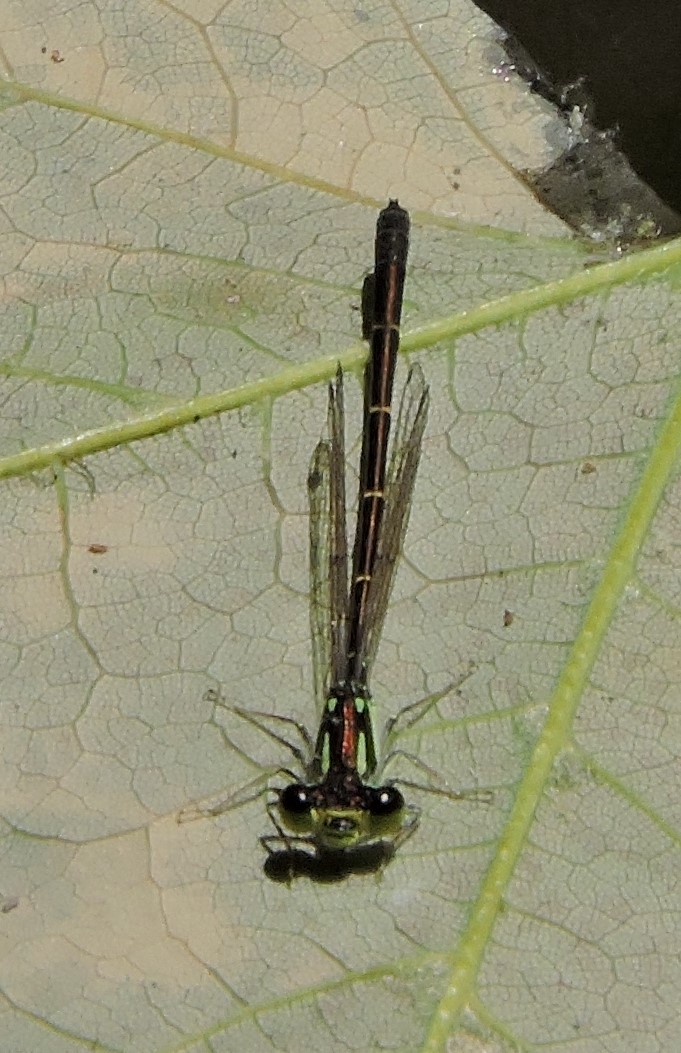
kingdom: Animalia
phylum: Arthropoda
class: Insecta
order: Odonata
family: Coenagrionidae
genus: Ischnura
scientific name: Ischnura posita
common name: Fragile forktail
